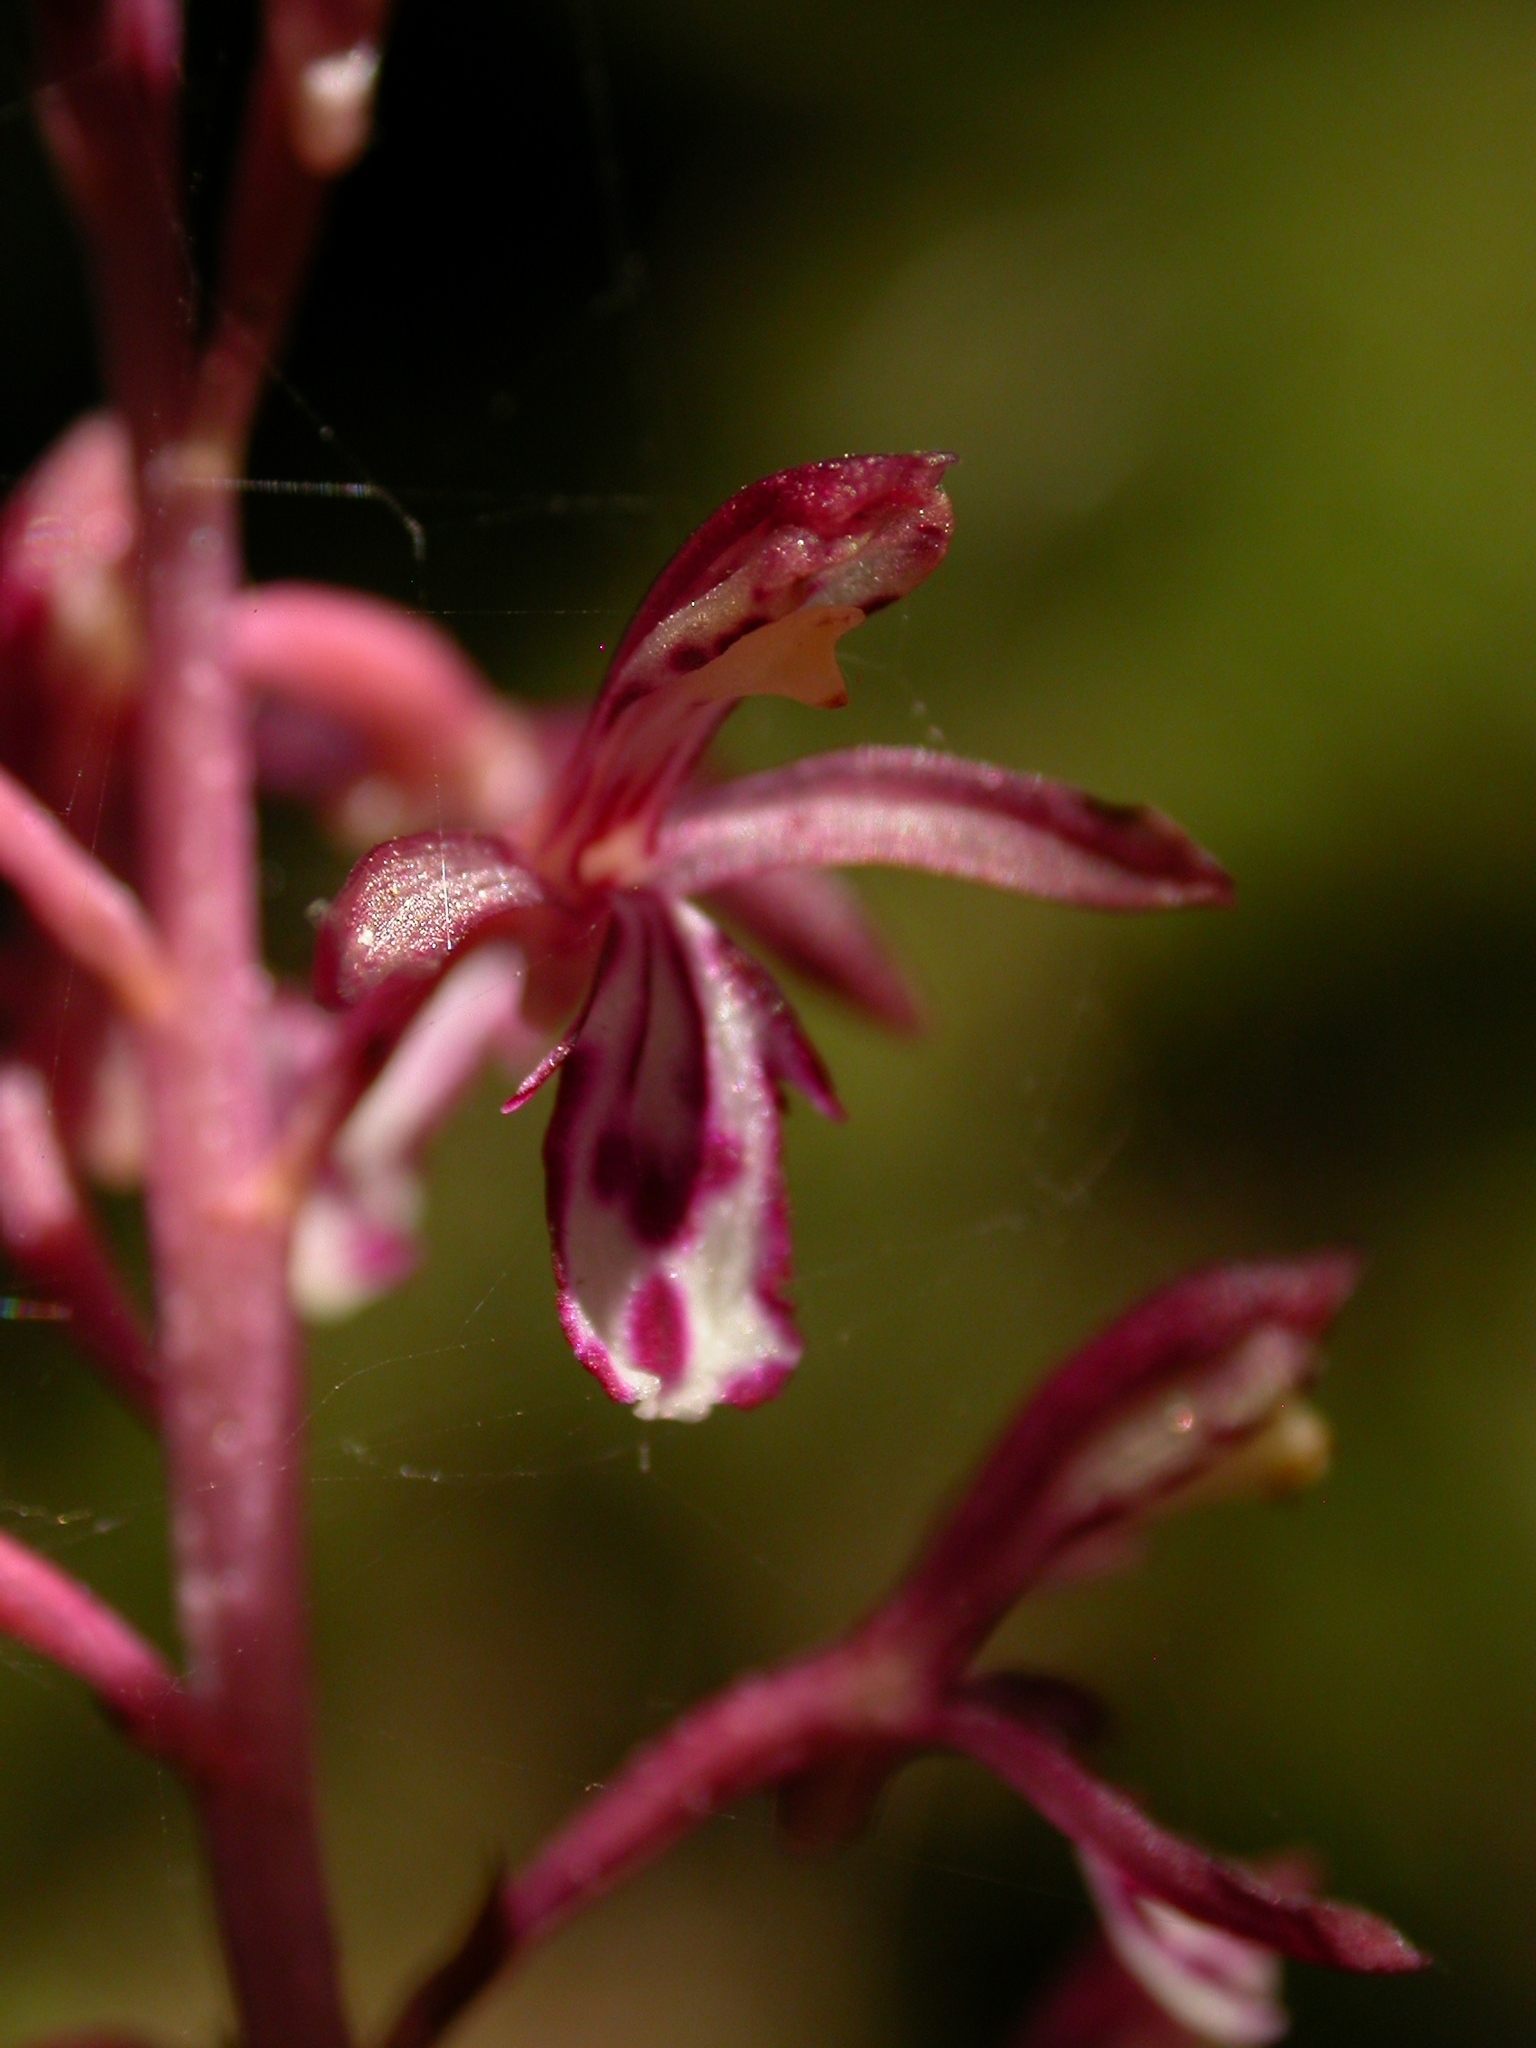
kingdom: Plantae
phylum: Tracheophyta
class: Liliopsida
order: Asparagales
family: Orchidaceae
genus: Corallorhiza
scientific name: Corallorhiza mertensiana
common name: Pacific coralroot
